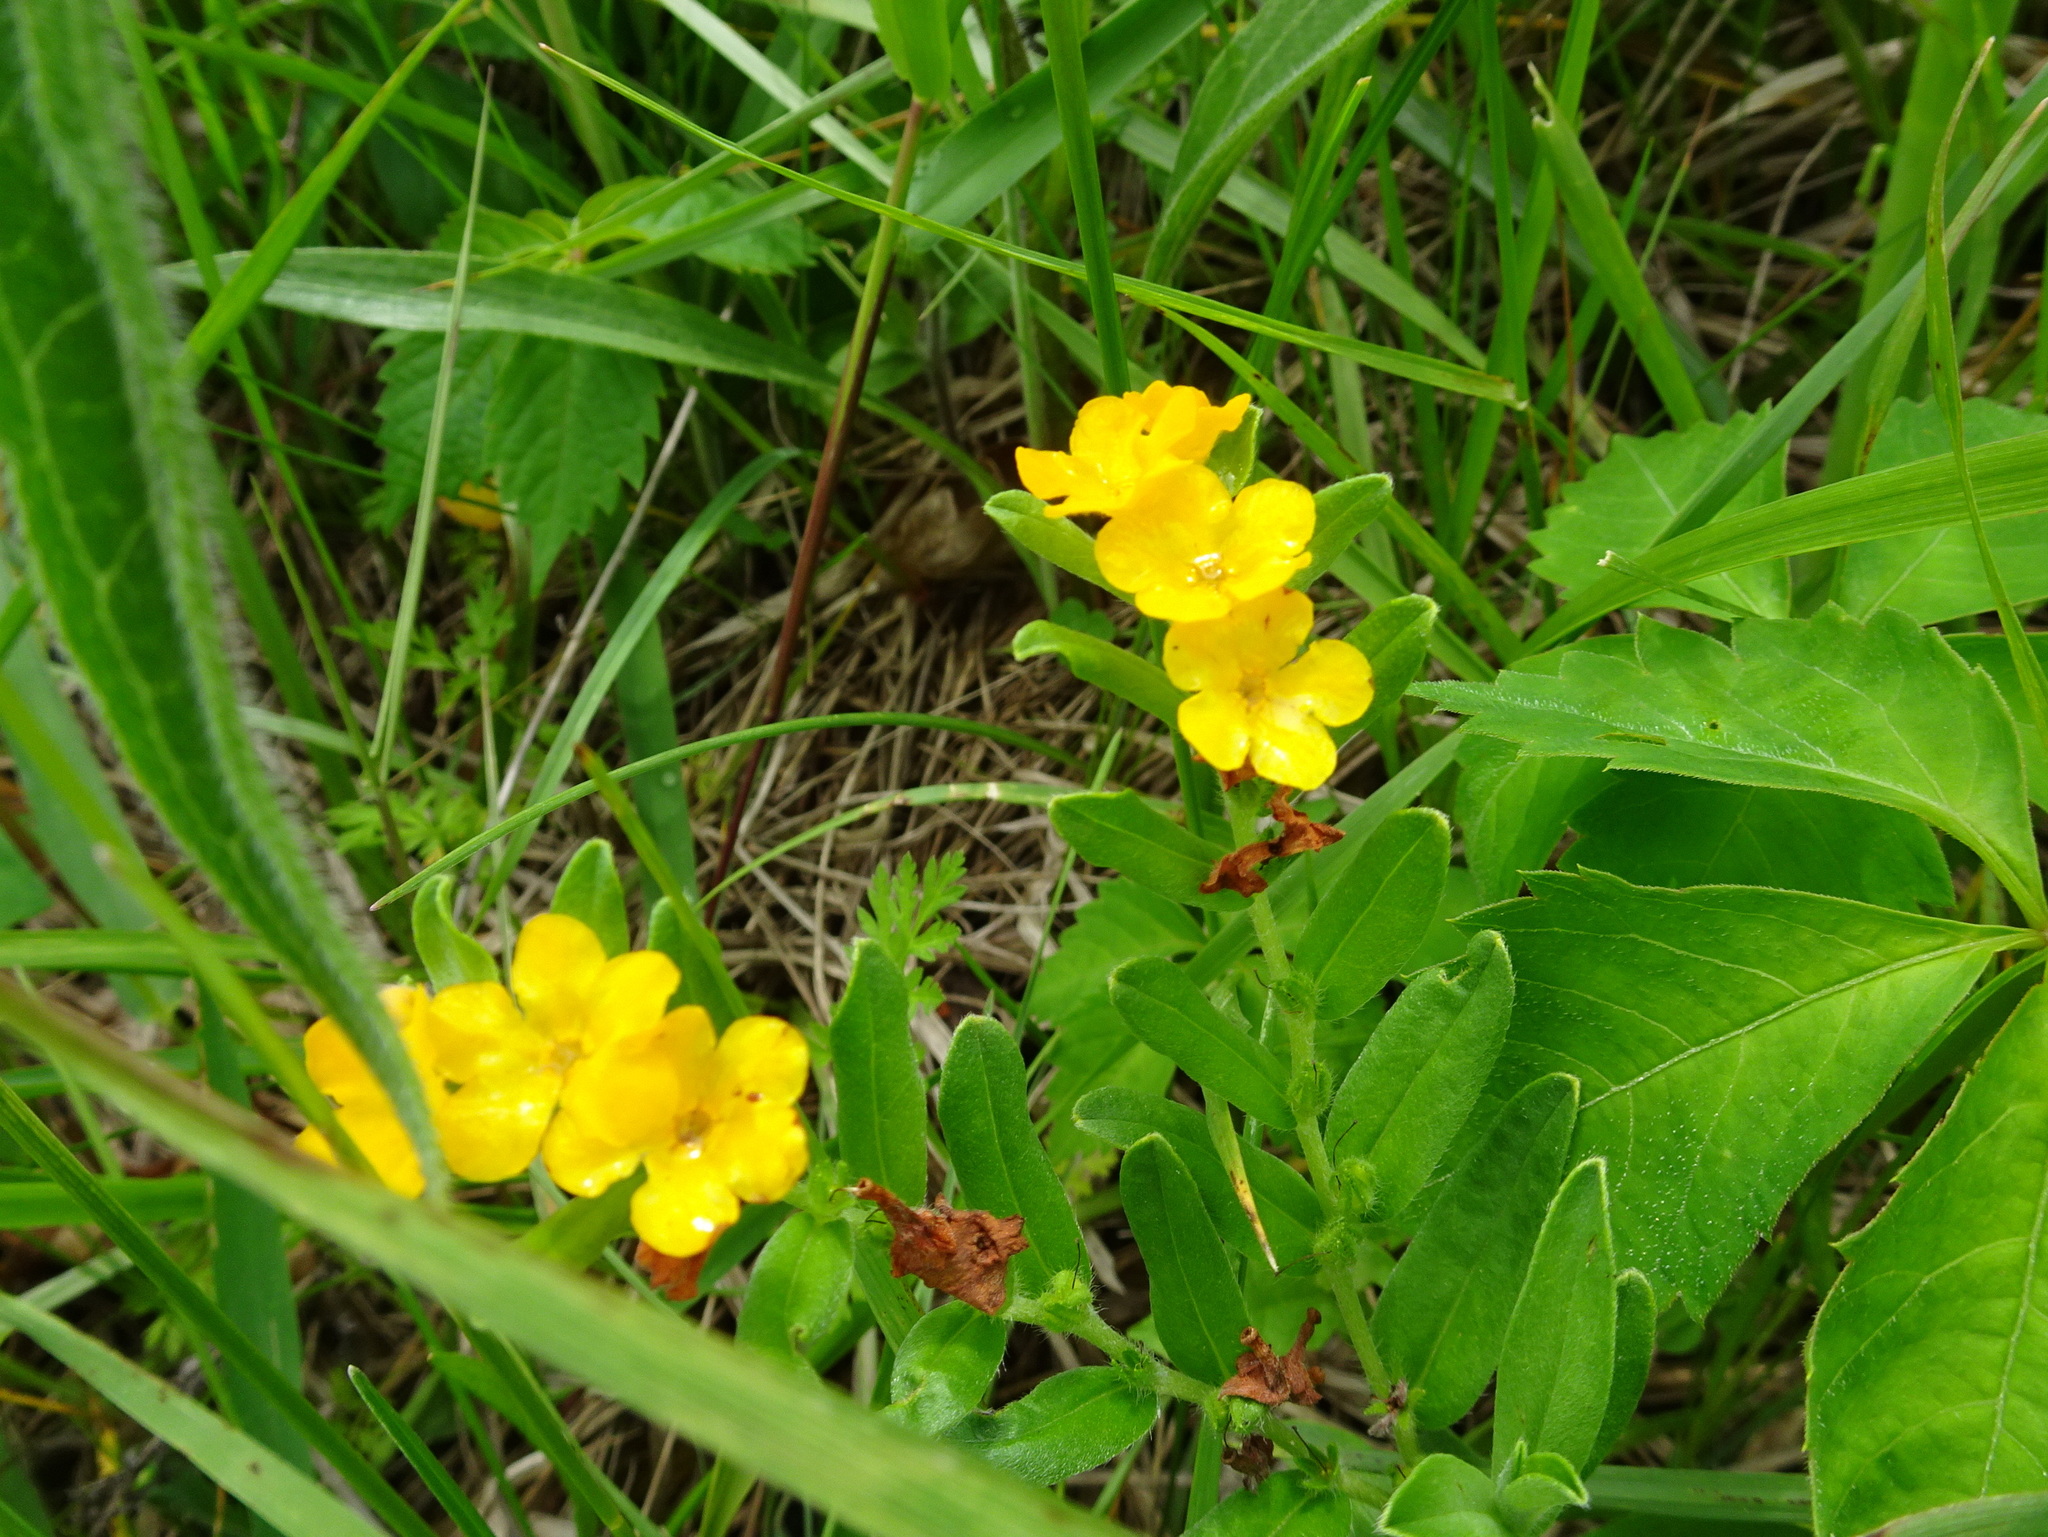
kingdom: Plantae
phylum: Tracheophyta
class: Magnoliopsida
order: Boraginales
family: Boraginaceae
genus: Lithospermum
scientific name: Lithospermum canescens
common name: Hoary puccoon
